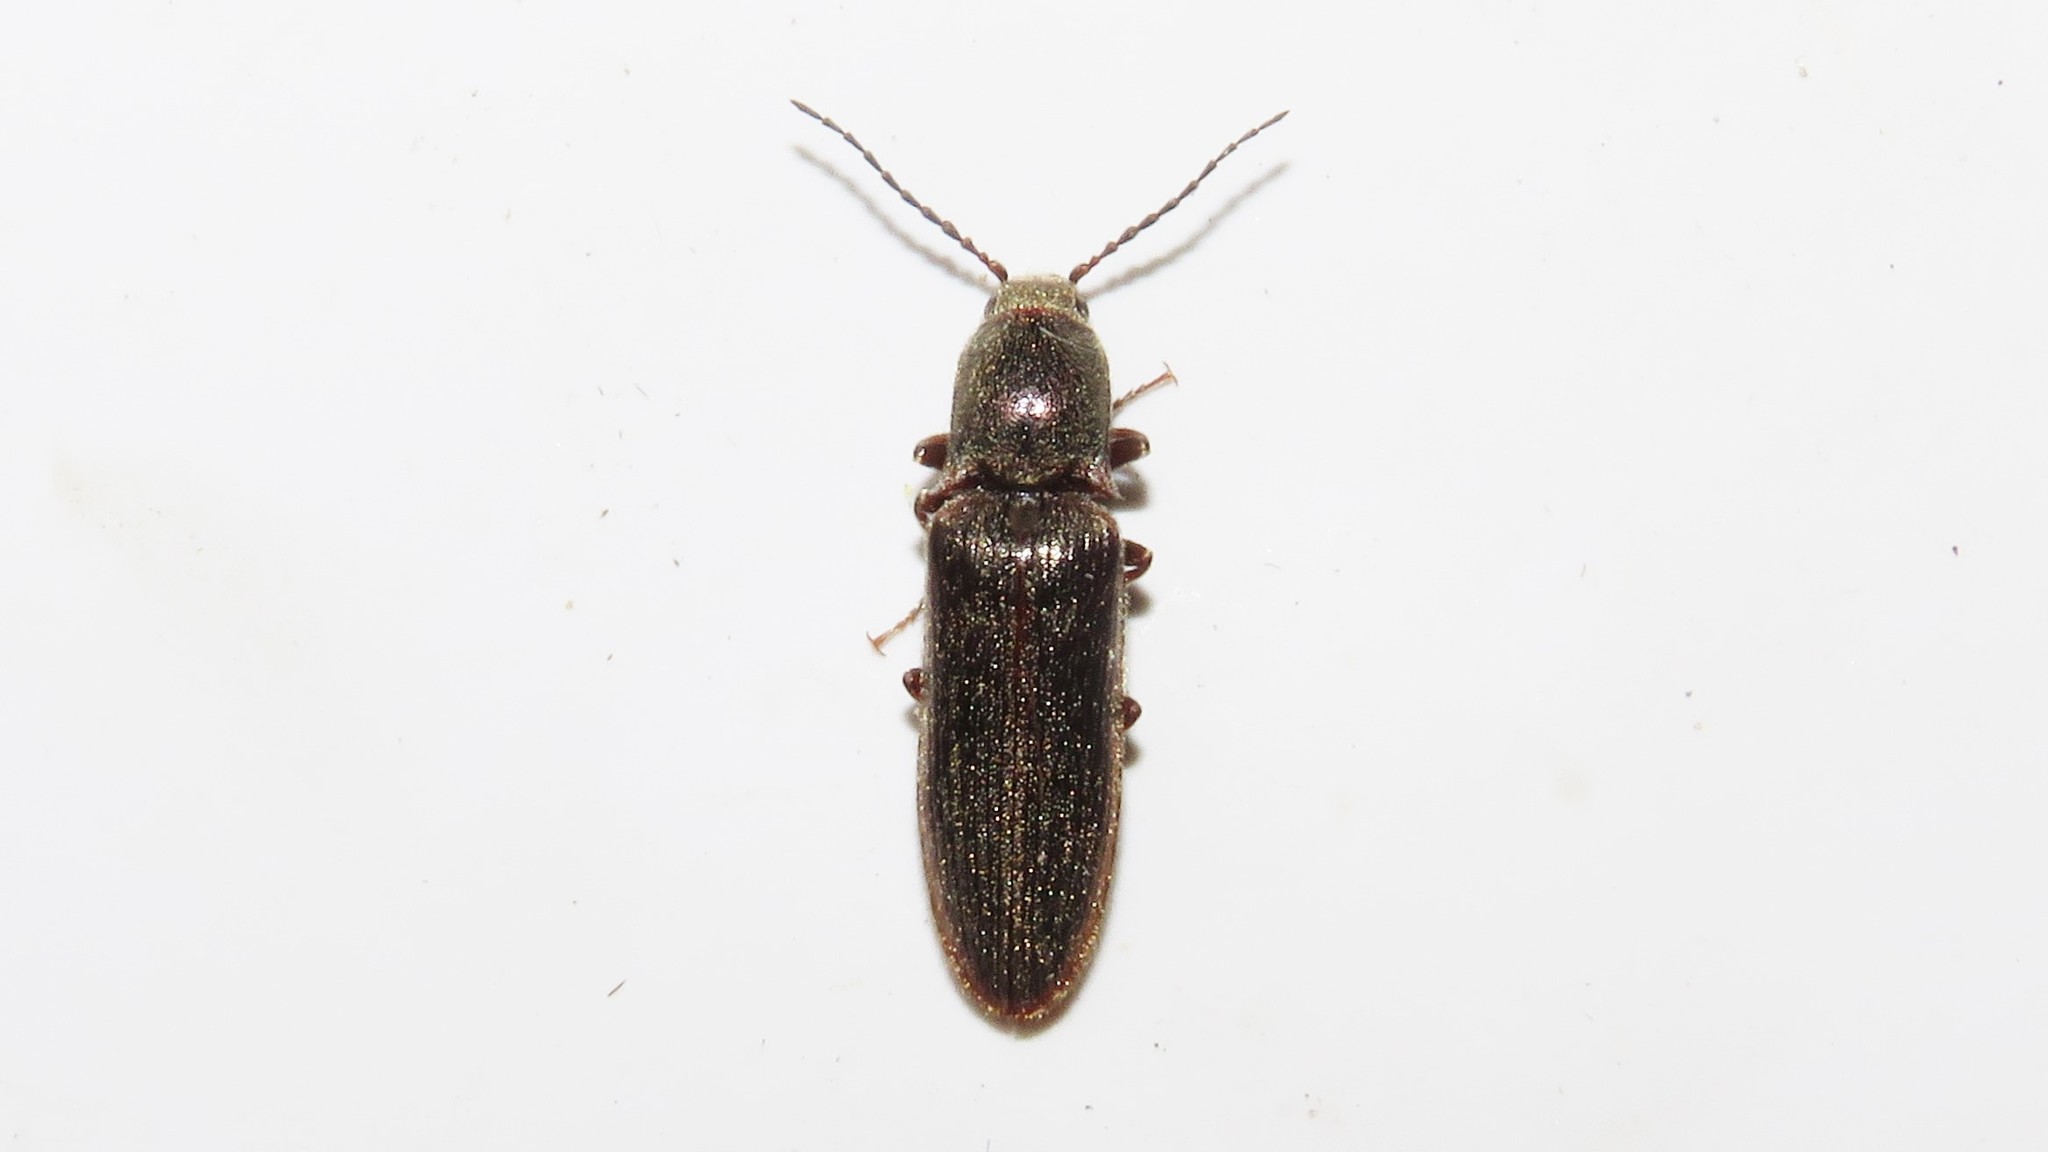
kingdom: Animalia
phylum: Arthropoda
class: Insecta
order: Coleoptera
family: Elateridae
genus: Sylvanelater
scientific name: Sylvanelater cylindriformis
